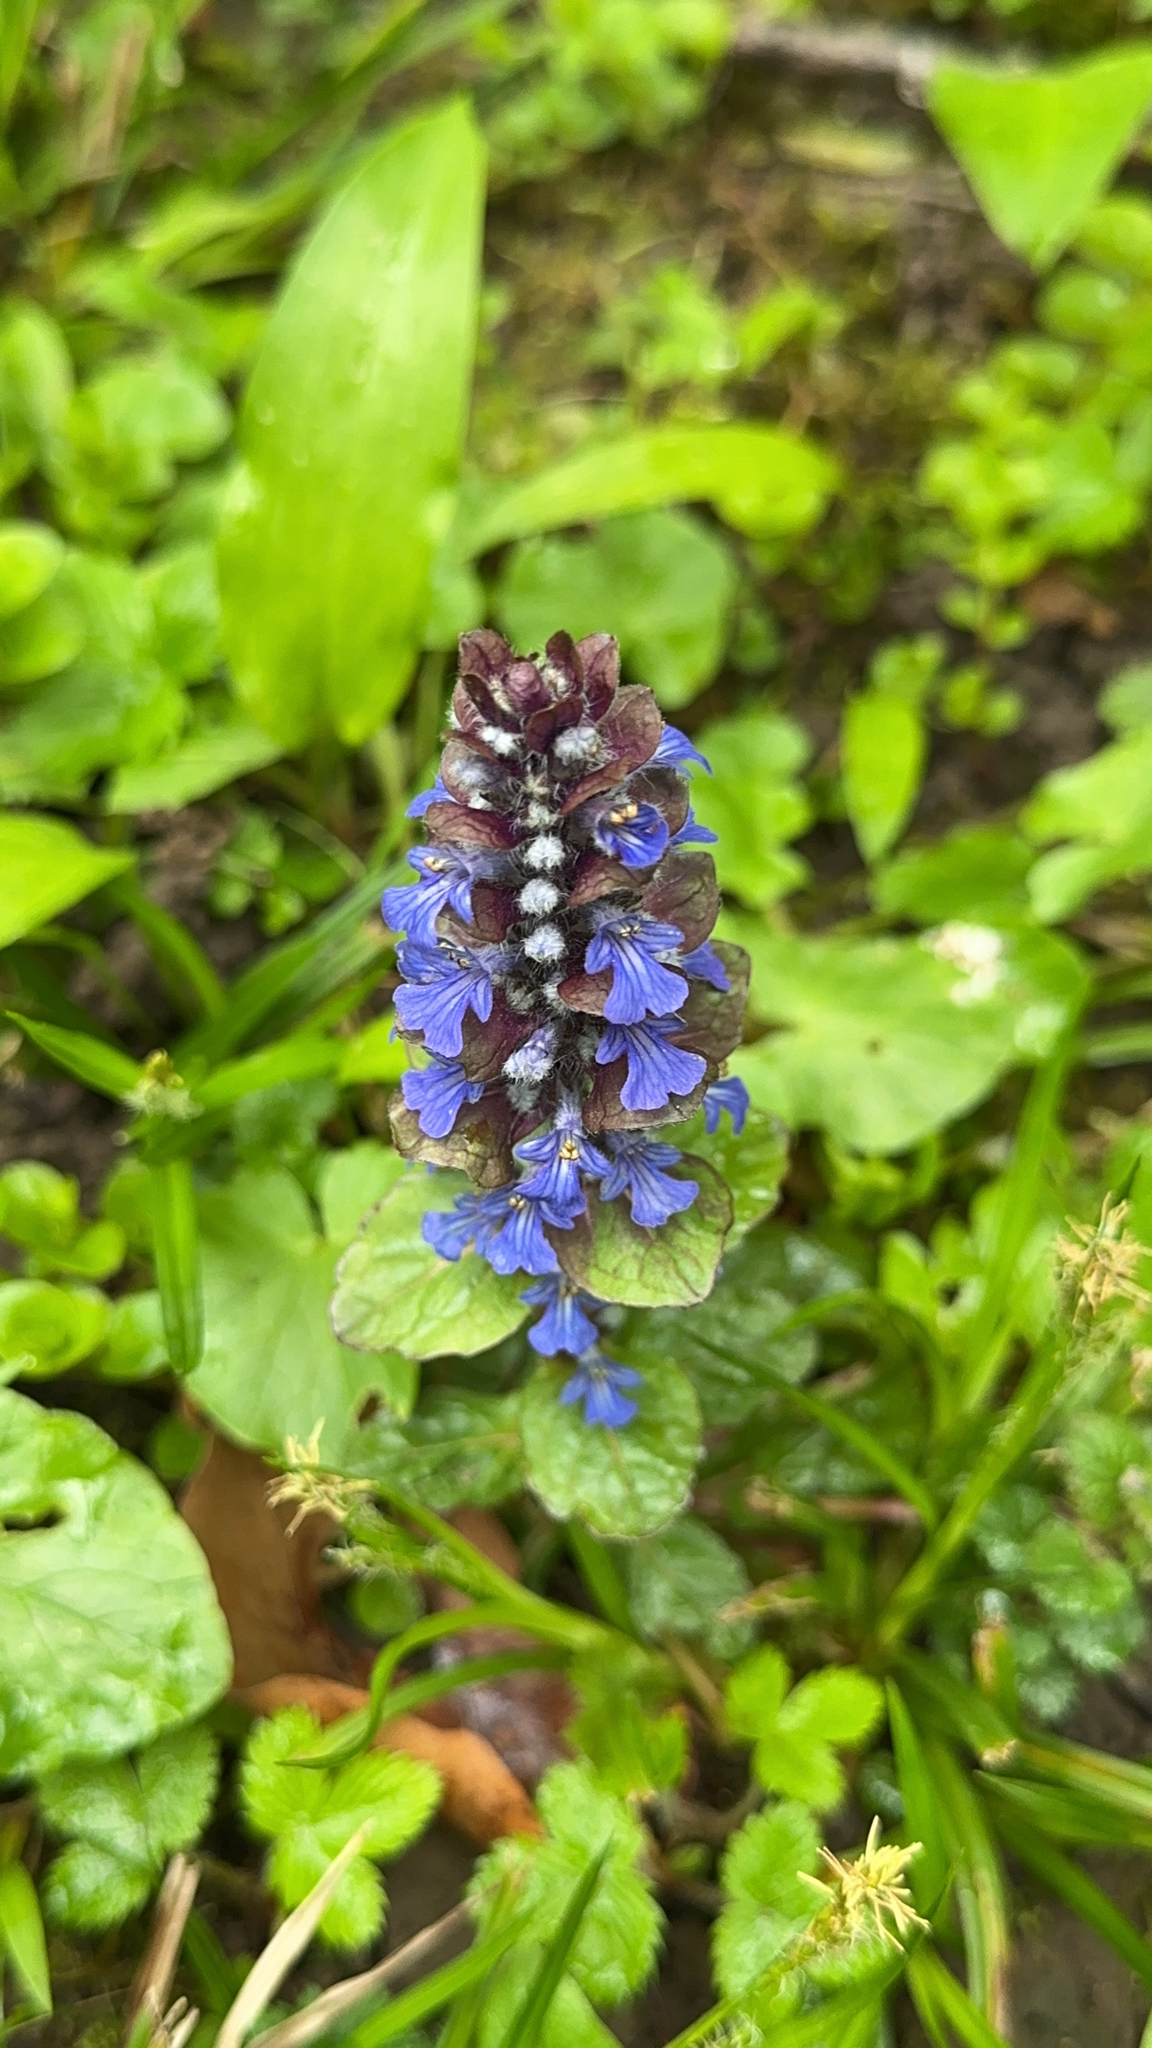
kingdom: Plantae
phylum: Tracheophyta
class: Magnoliopsida
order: Lamiales
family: Lamiaceae
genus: Ajuga
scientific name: Ajuga reptans
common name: Bugle
